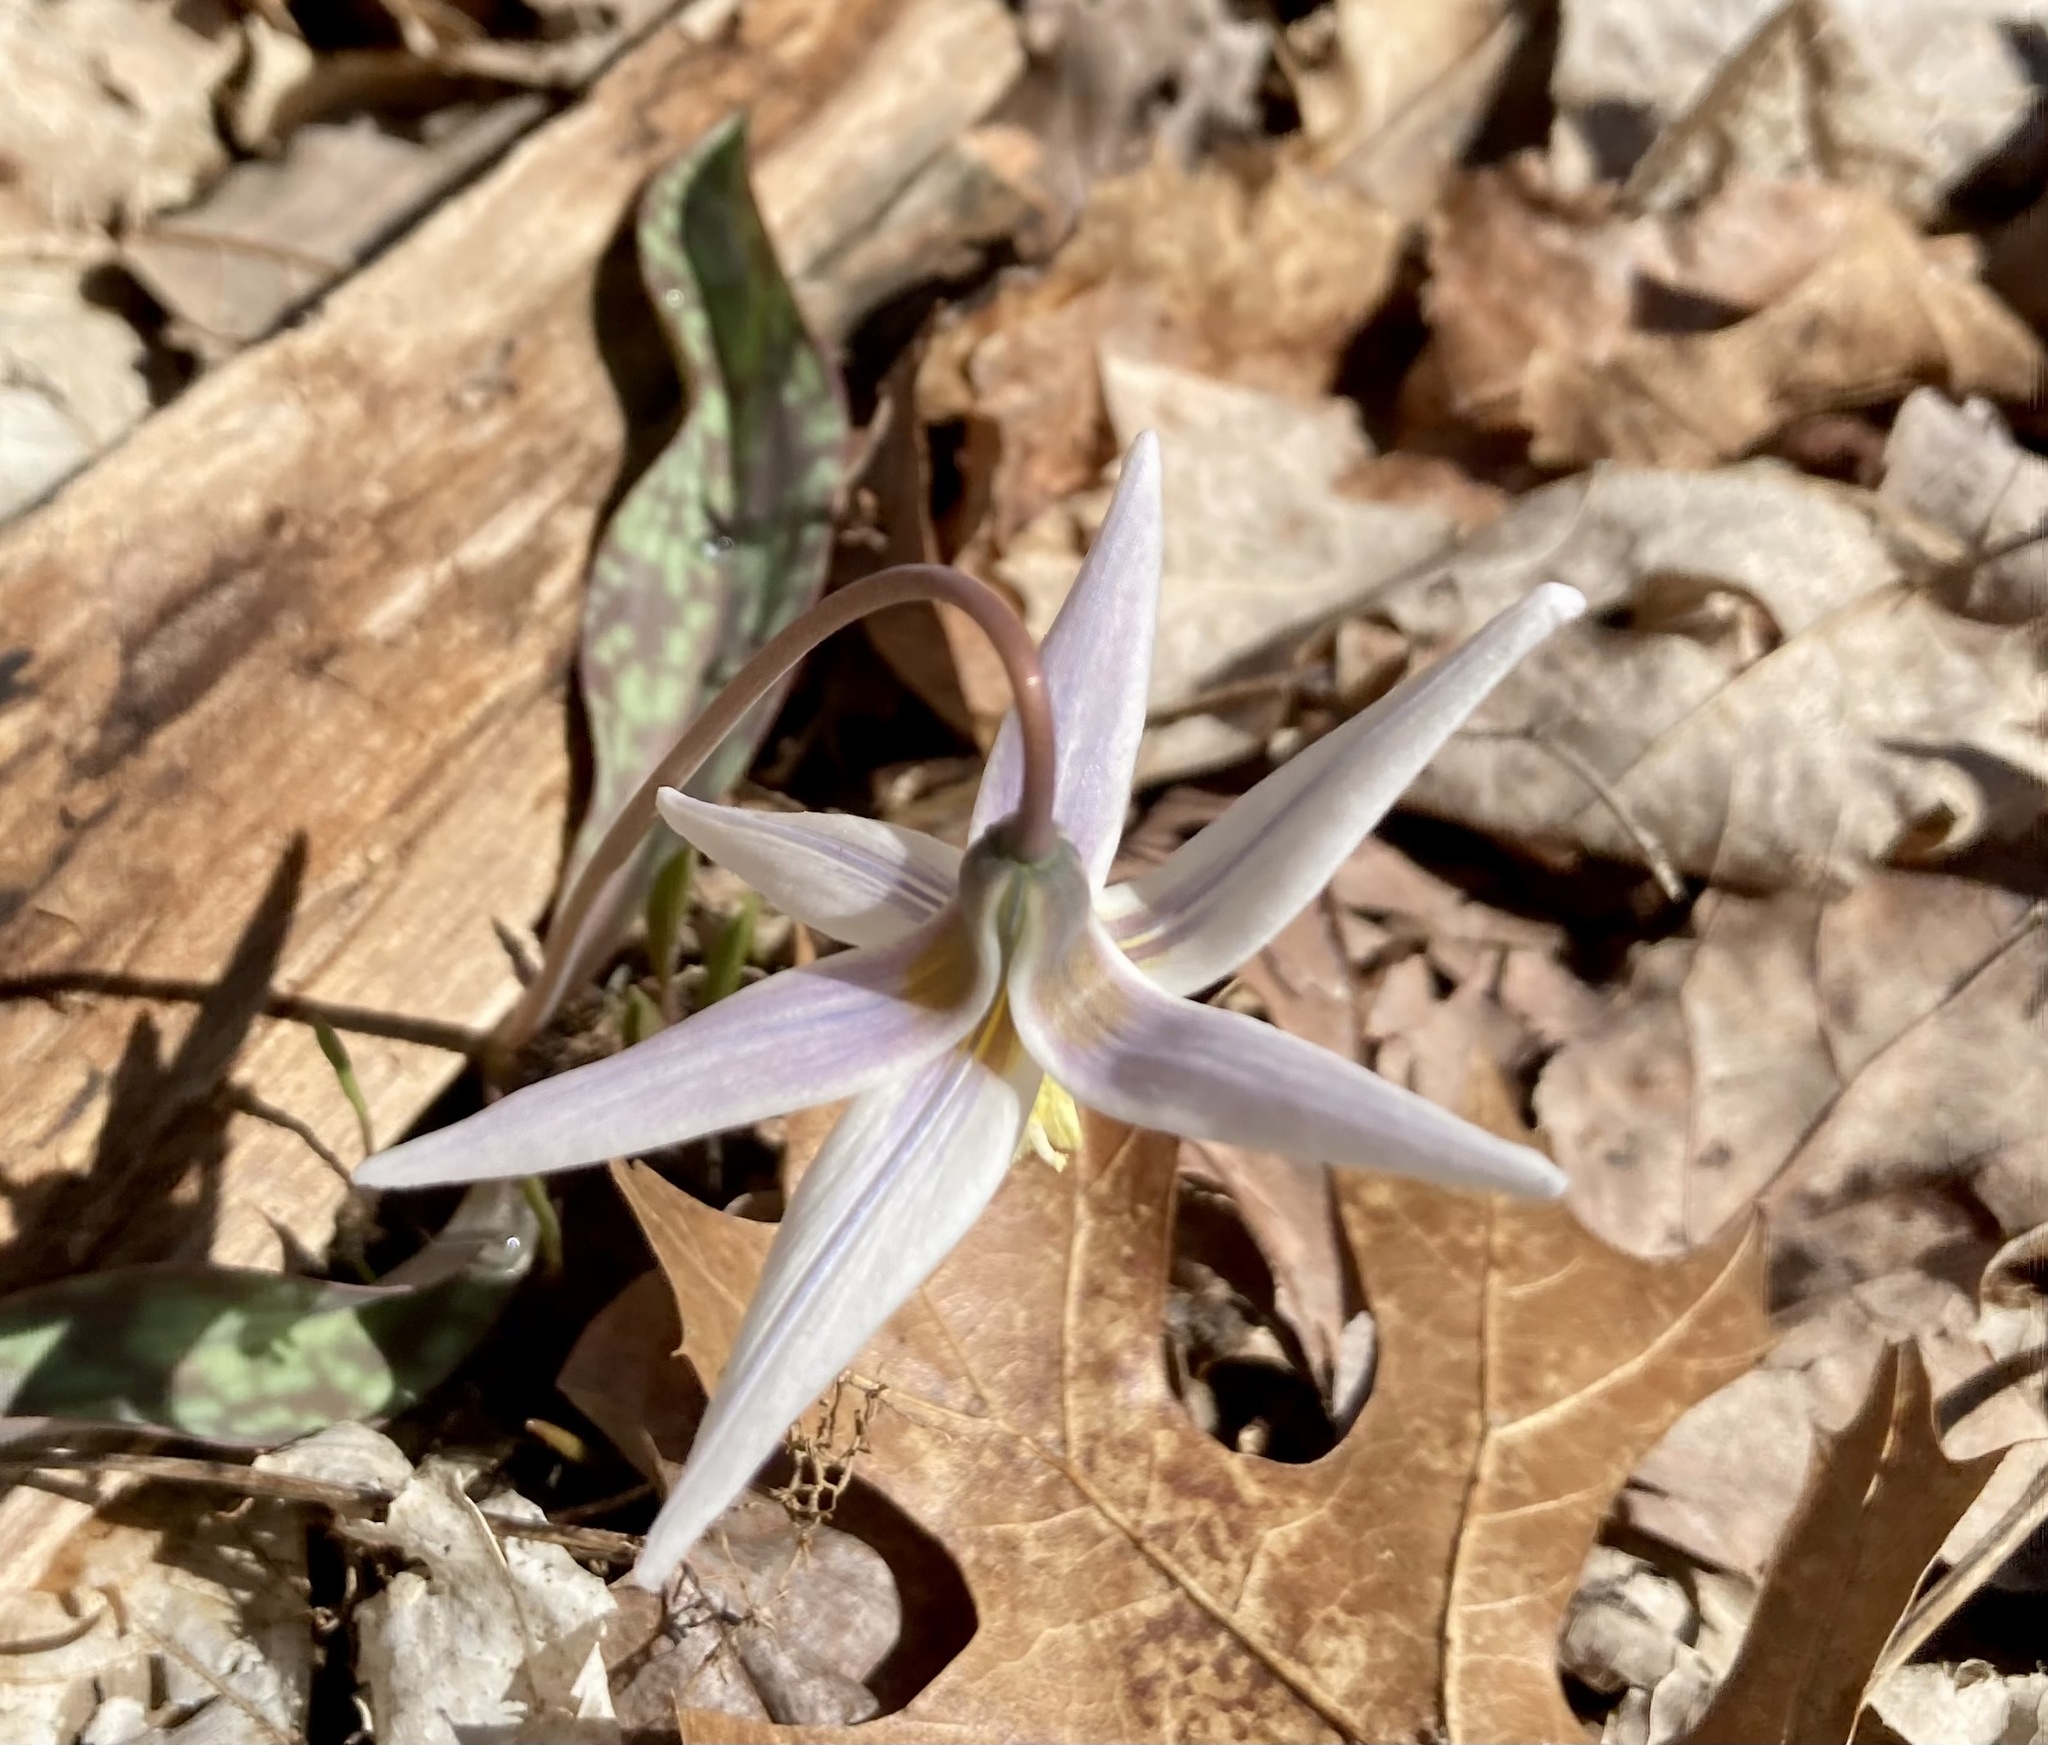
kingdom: Plantae
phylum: Tracheophyta
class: Liliopsida
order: Liliales
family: Liliaceae
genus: Erythronium
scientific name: Erythronium albidum
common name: White trout-lily
